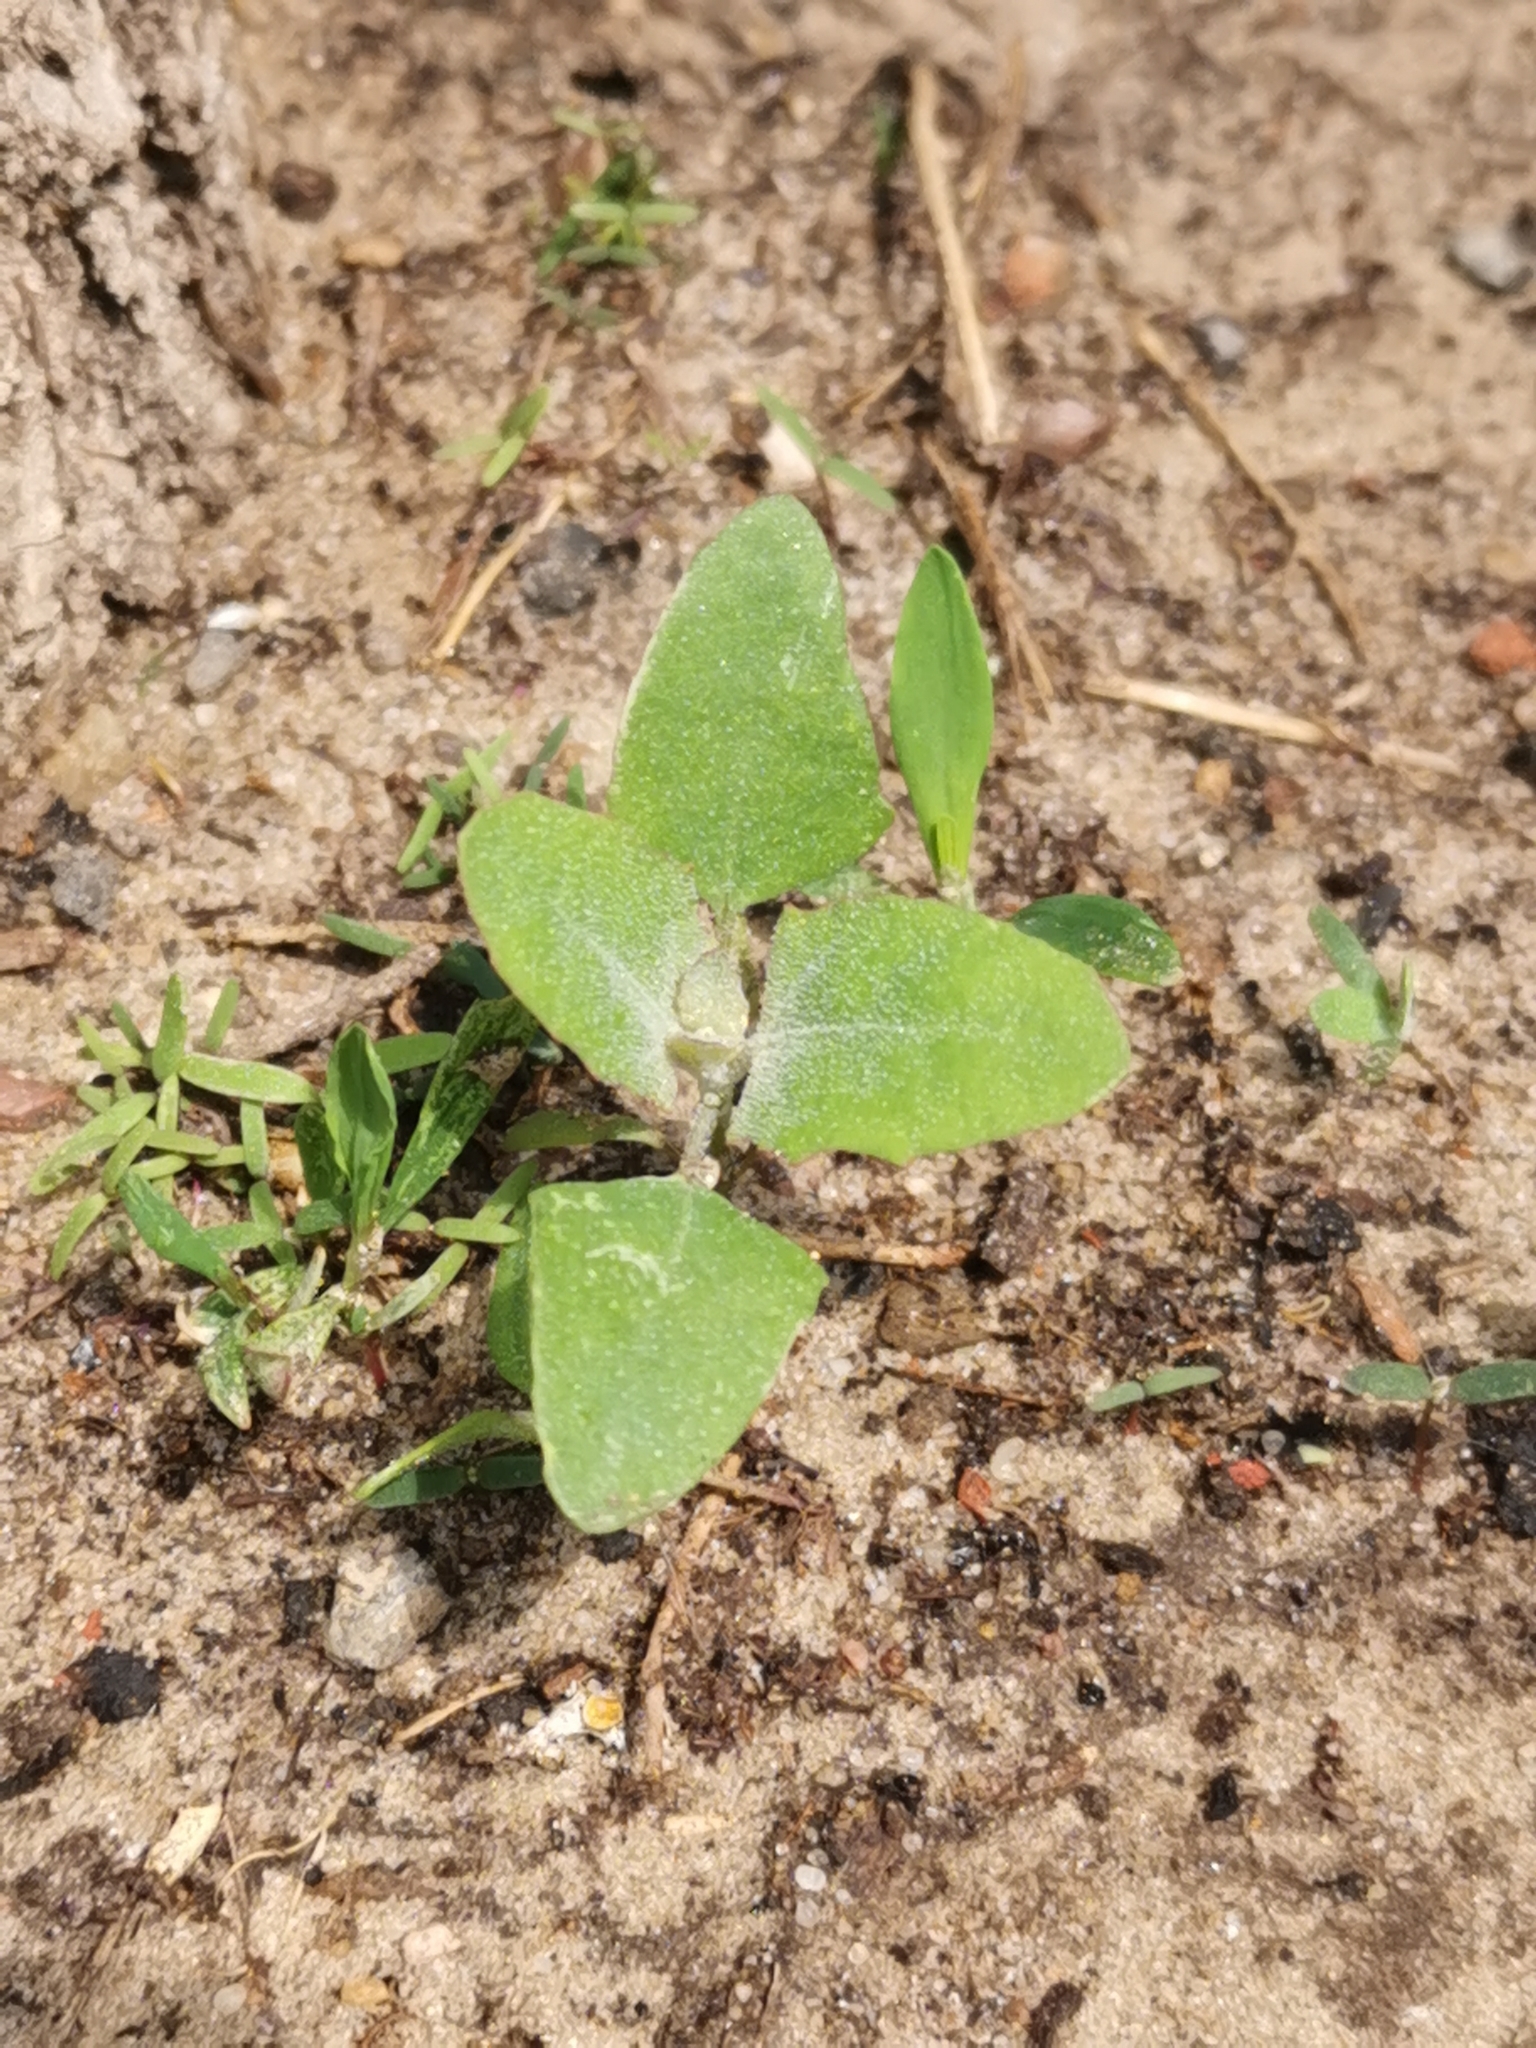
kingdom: Plantae
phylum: Tracheophyta
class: Magnoliopsida
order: Caryophyllales
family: Amaranthaceae
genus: Chenopodium
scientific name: Chenopodium album
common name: Fat-hen
